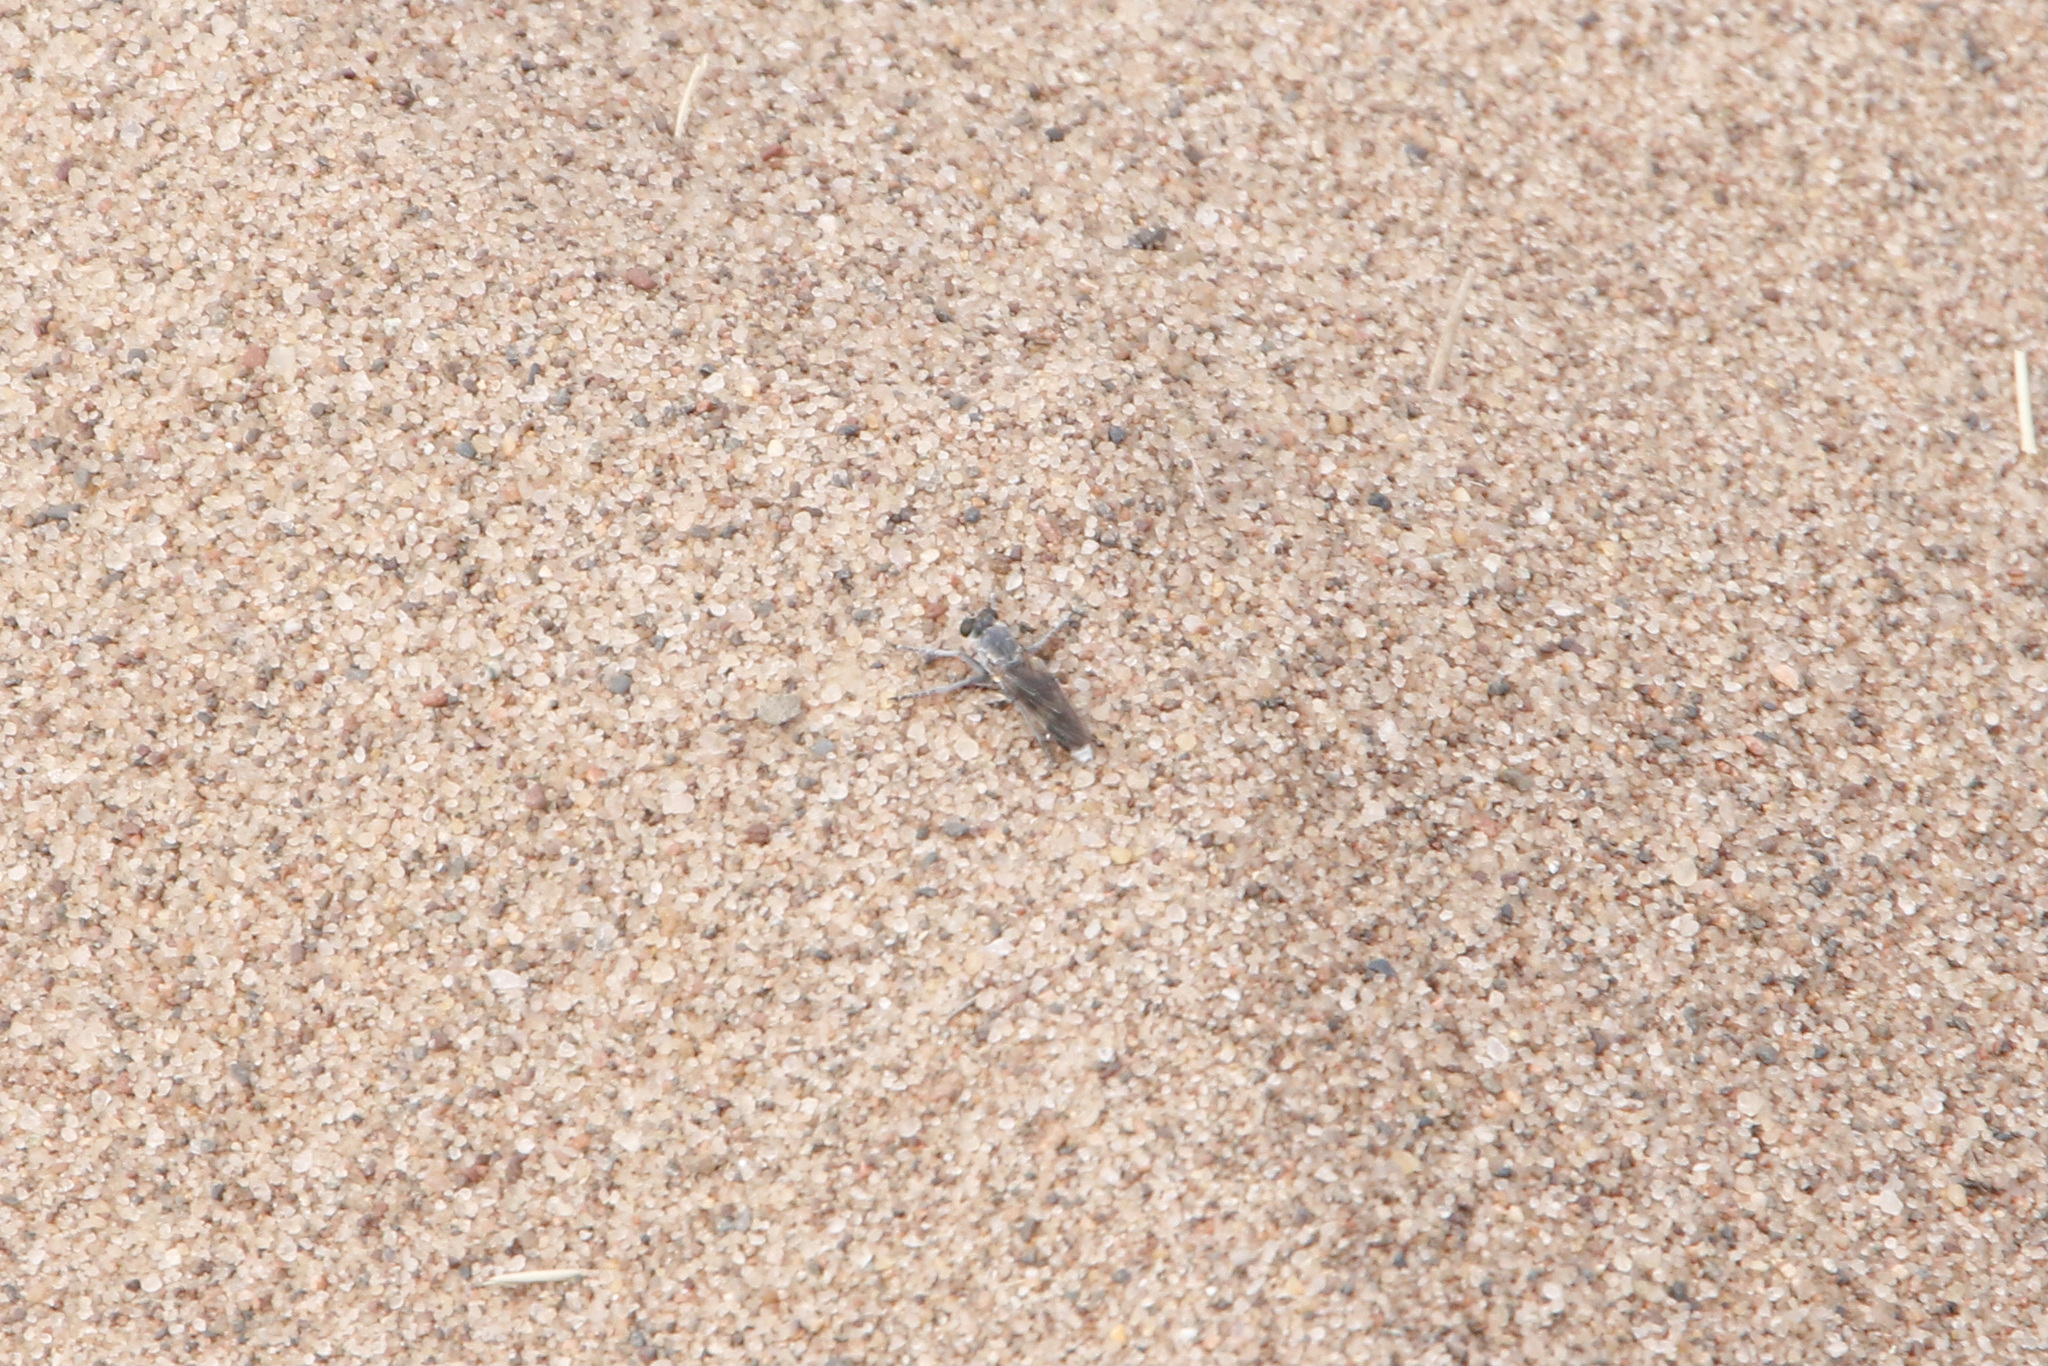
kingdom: Animalia
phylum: Arthropoda
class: Insecta
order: Diptera
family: Asilidae
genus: Stichopogon
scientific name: Stichopogon trifasciatus
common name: Three-banded robber fly
